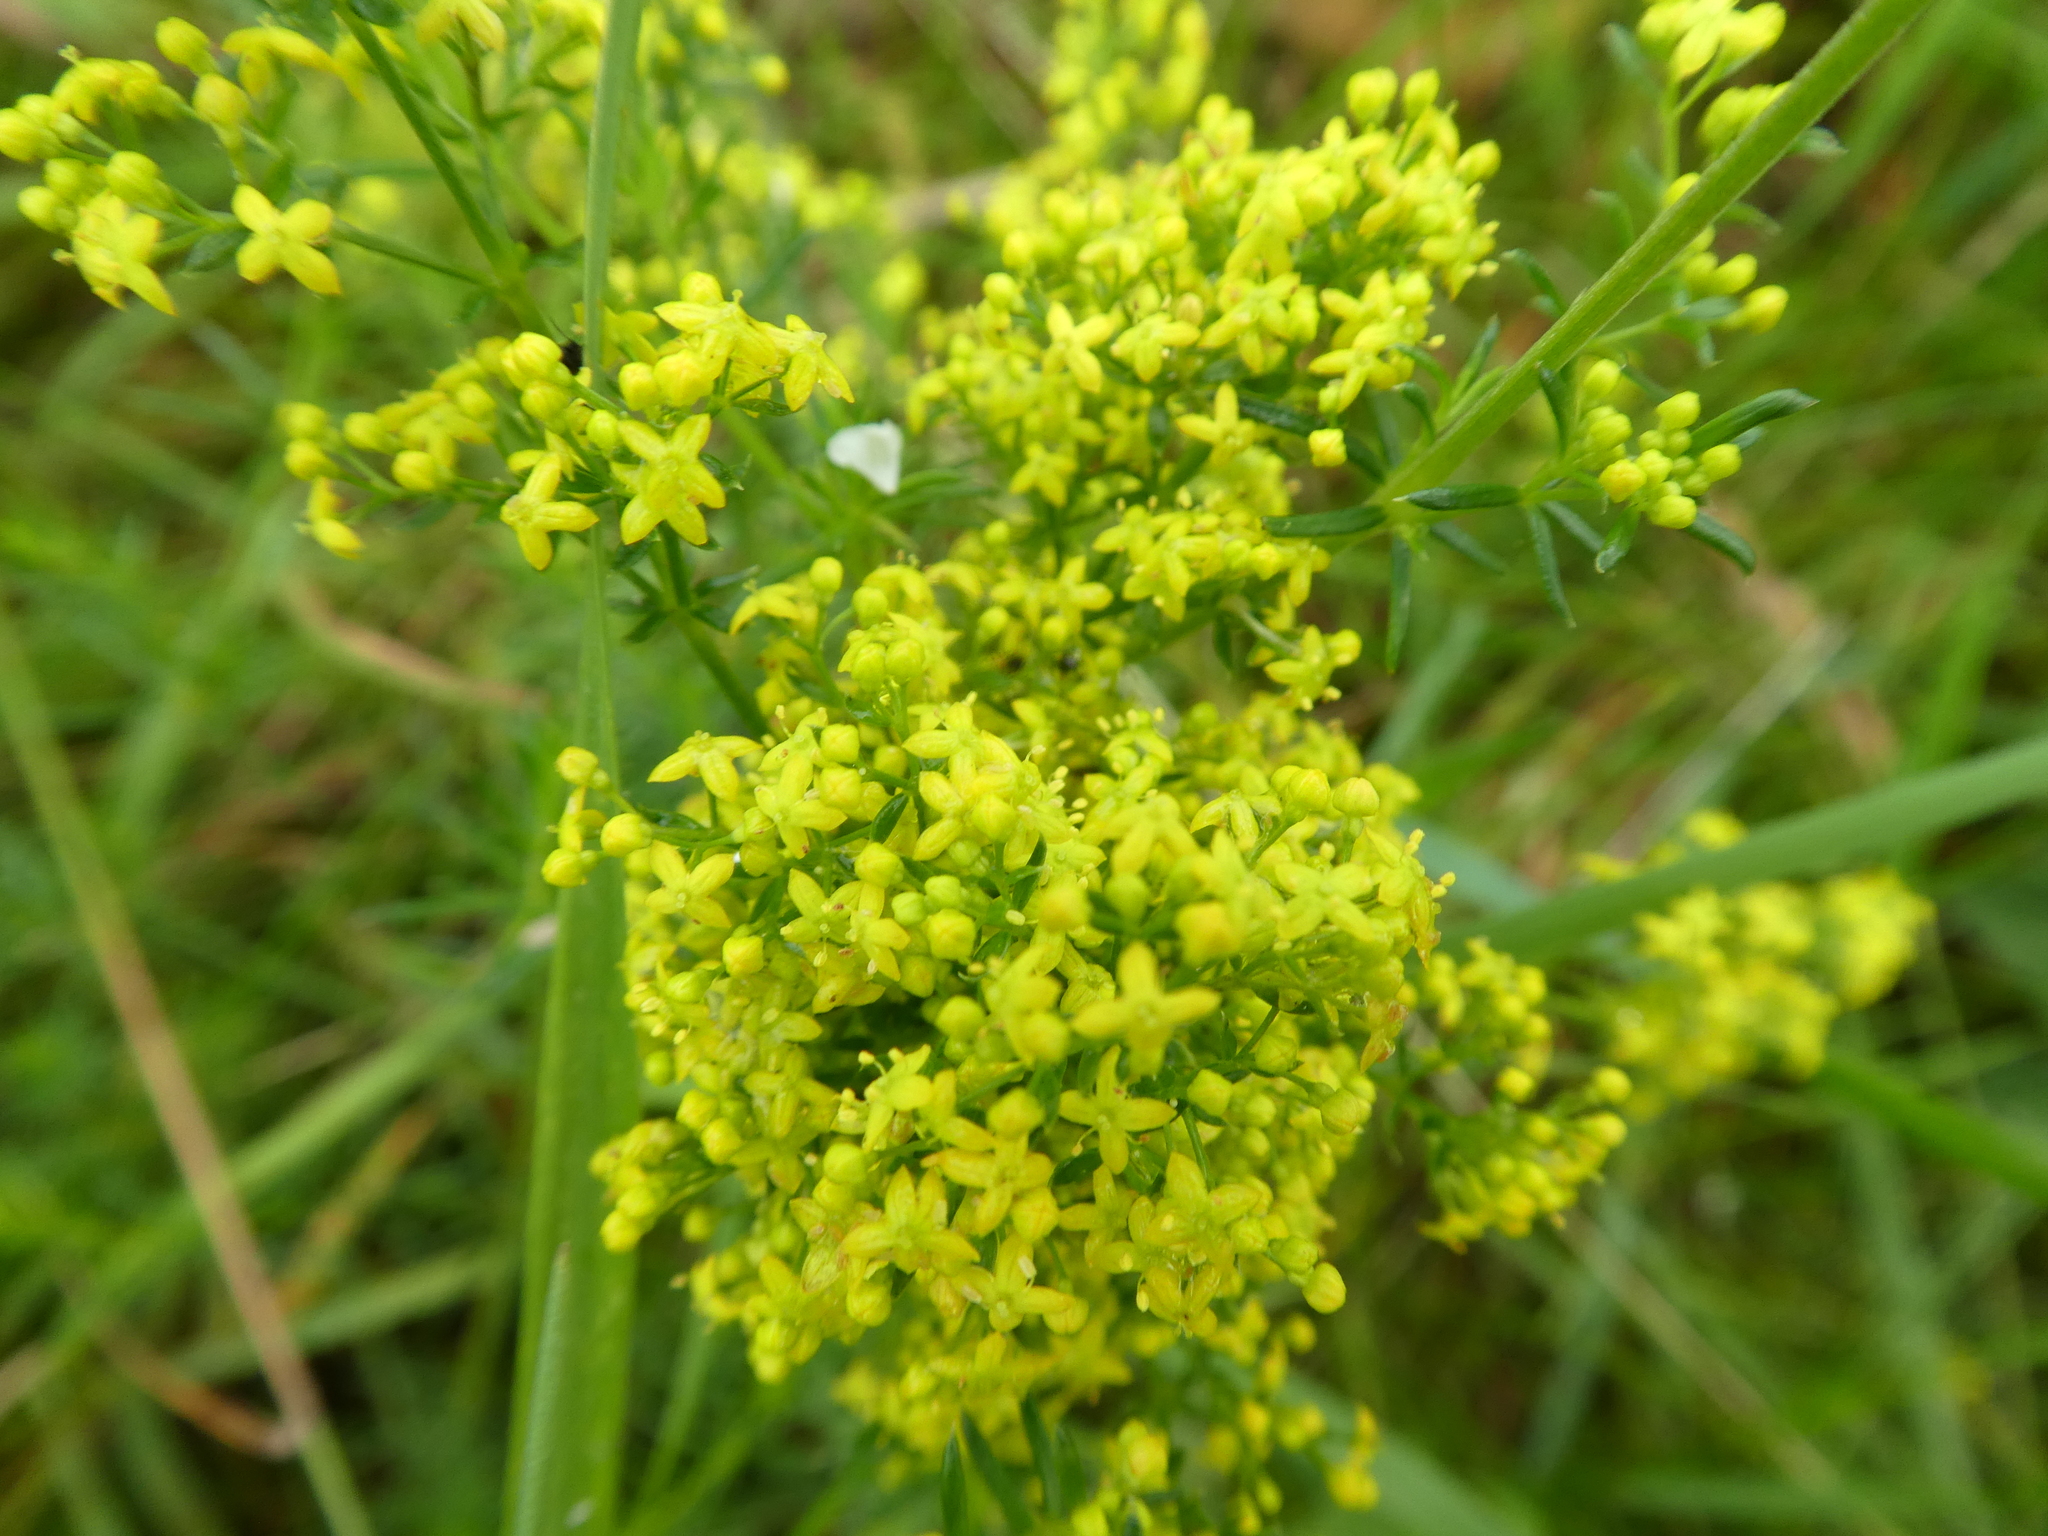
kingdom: Plantae
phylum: Tracheophyta
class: Magnoliopsida
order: Gentianales
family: Rubiaceae
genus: Galium
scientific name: Galium verum
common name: Lady's bedstraw
